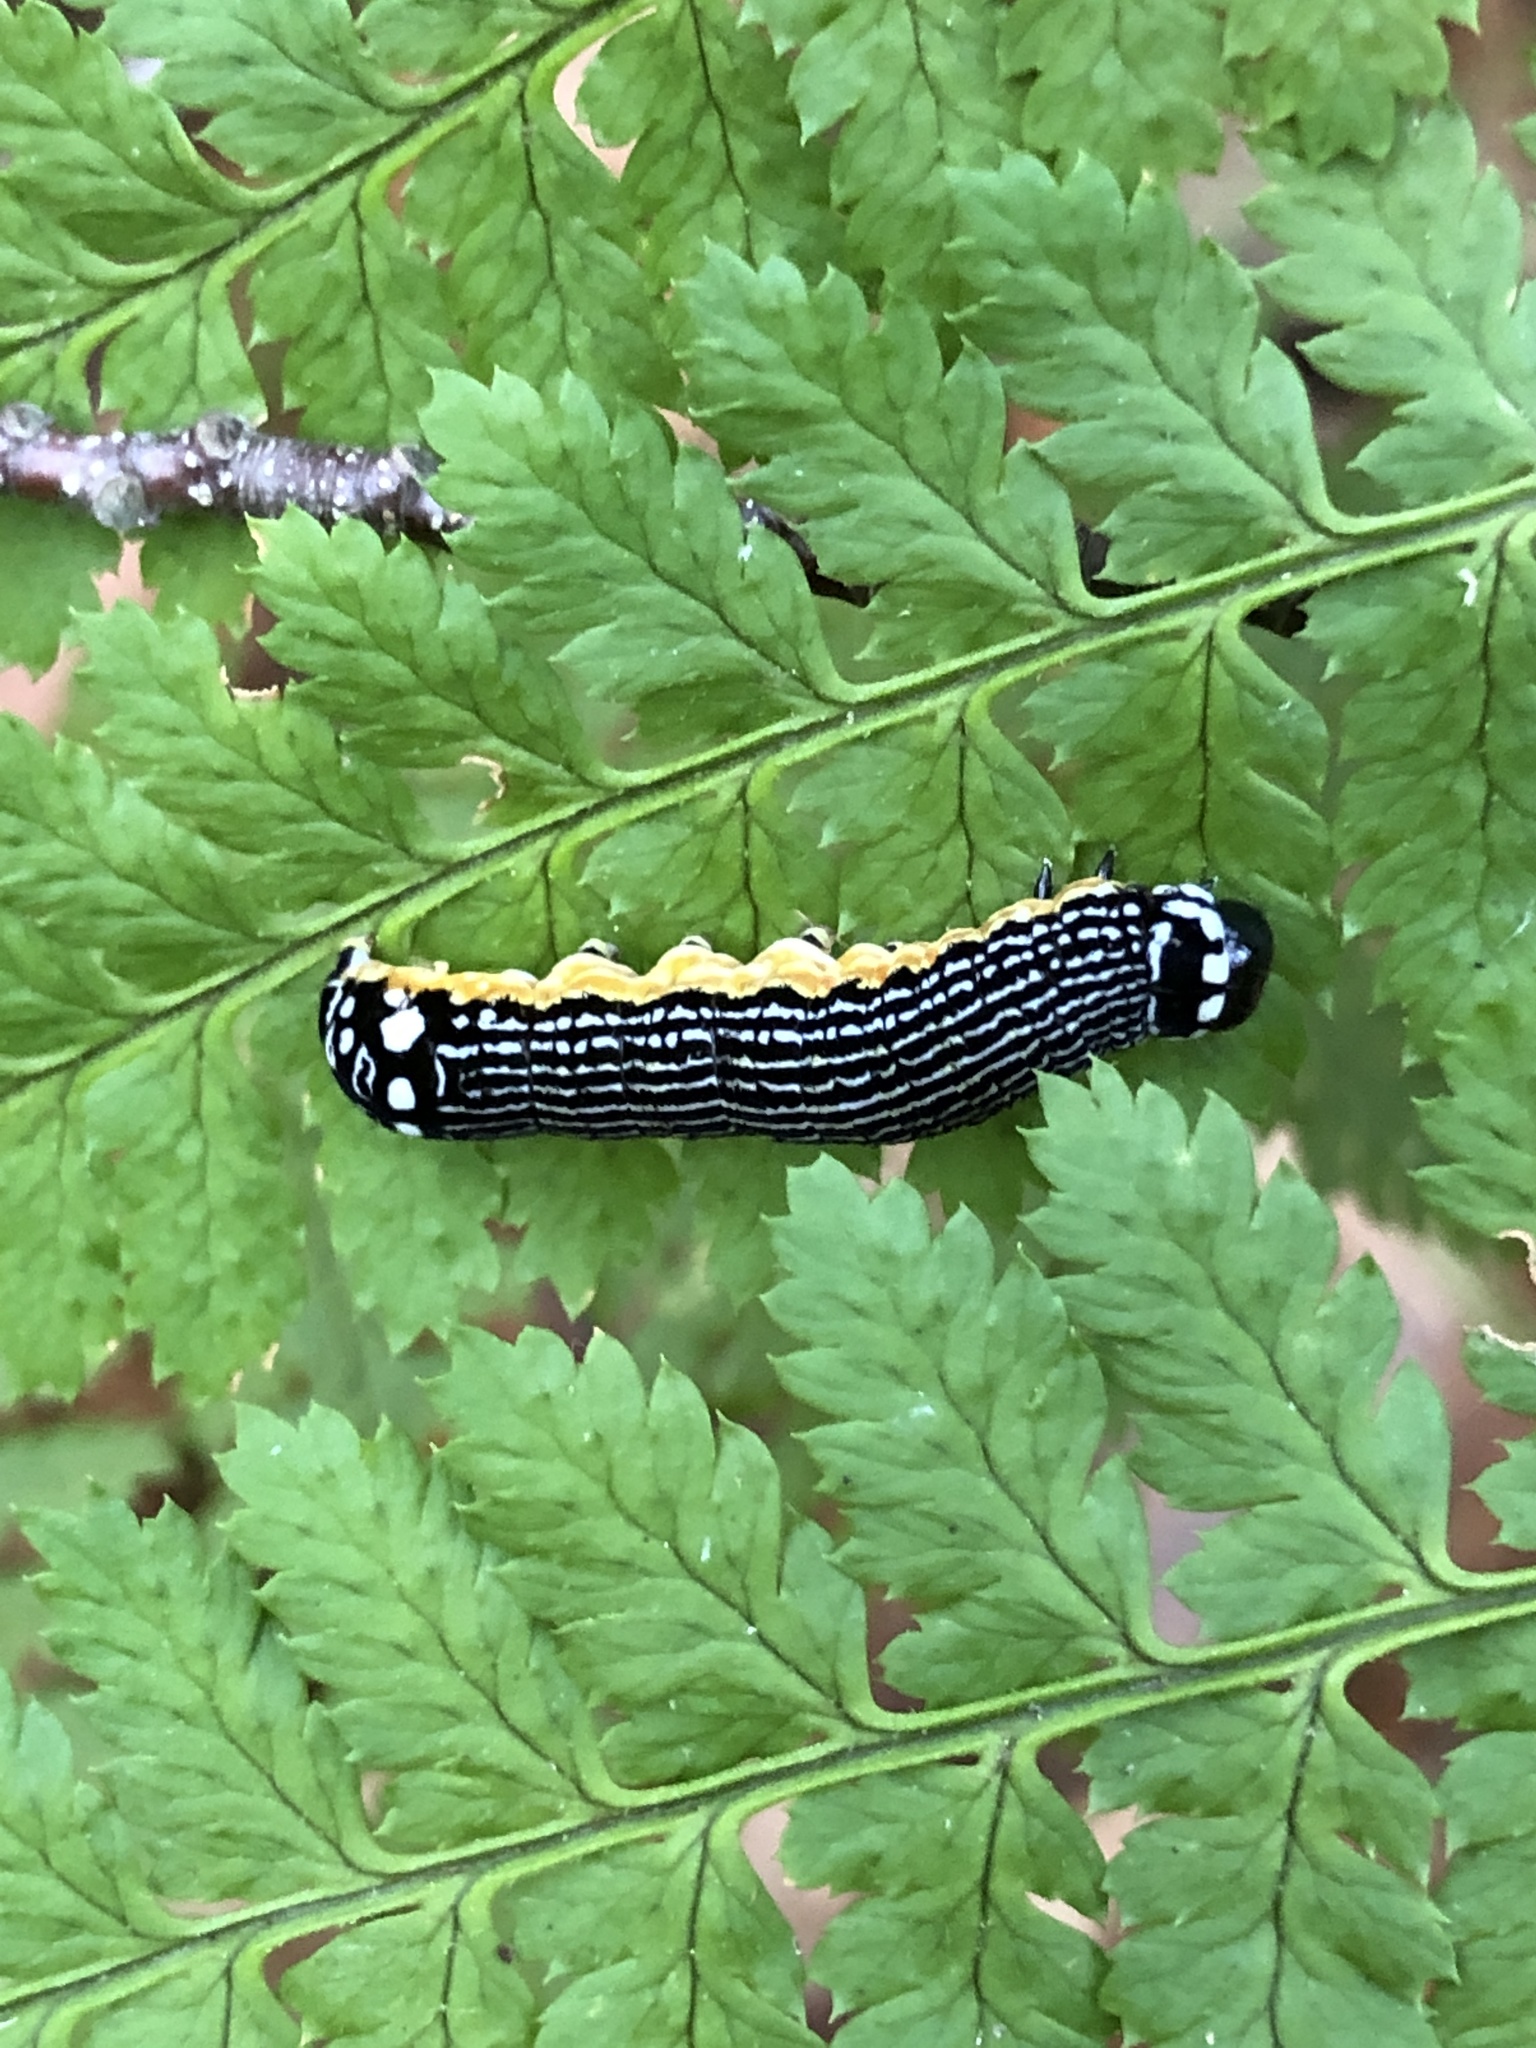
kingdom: Animalia
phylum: Arthropoda
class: Insecta
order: Lepidoptera
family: Noctuidae
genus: Phosphila
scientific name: Phosphila turbulenta
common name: Turbulent phosphila moth
